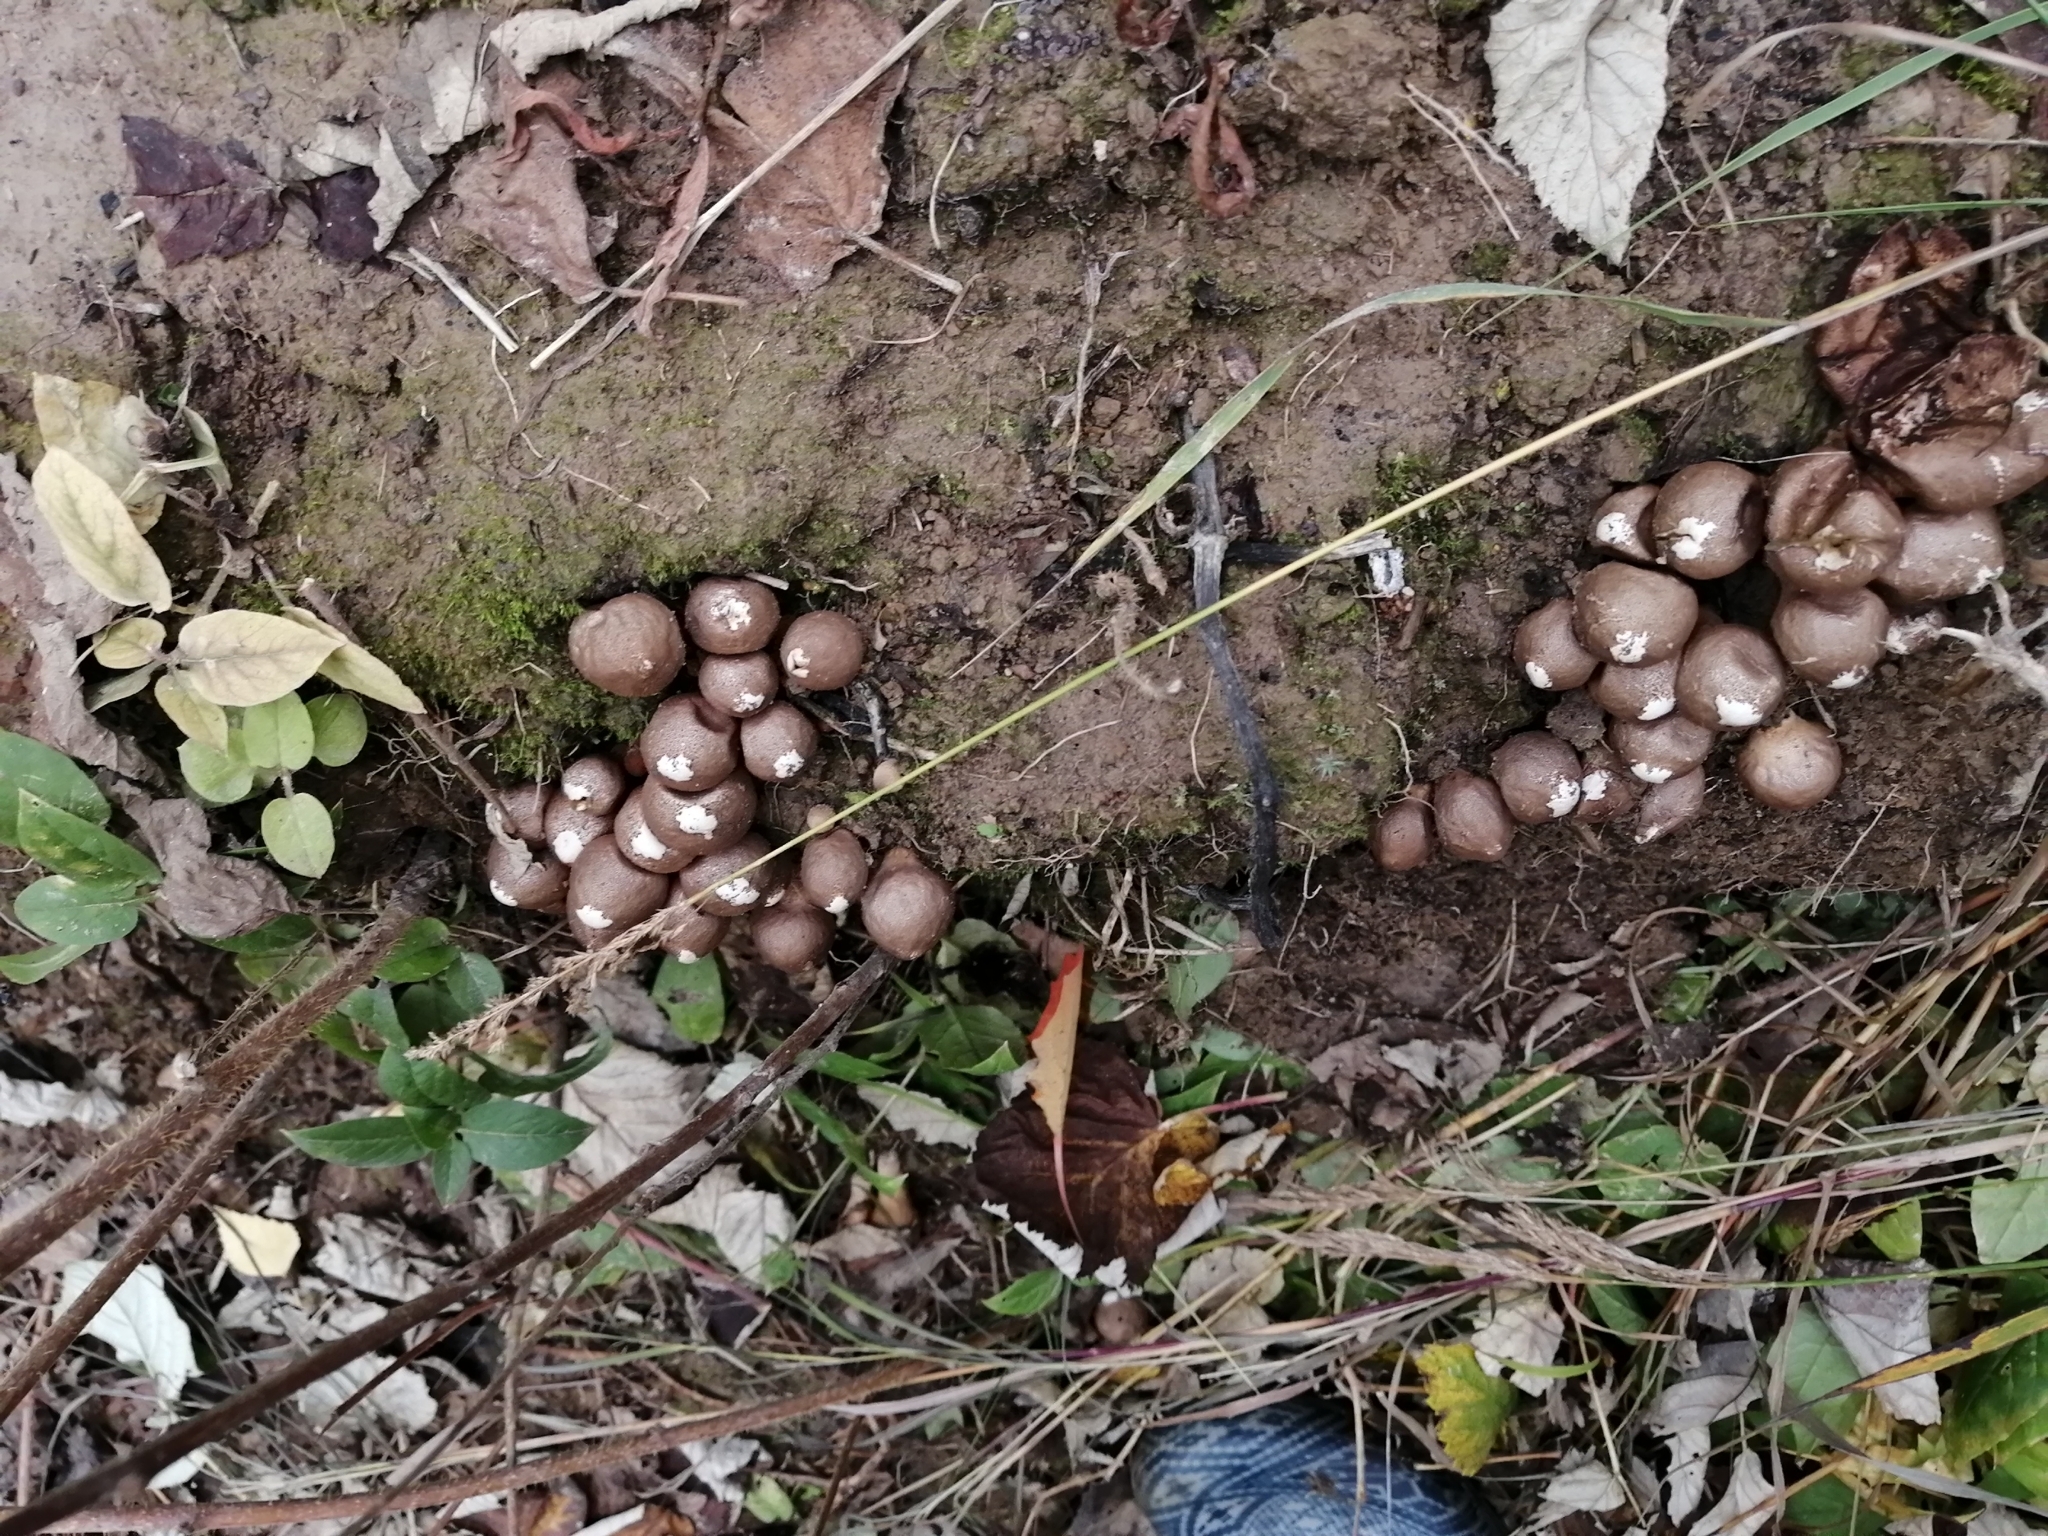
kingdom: Fungi
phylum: Basidiomycota
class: Agaricomycetes
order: Agaricales
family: Lycoperdaceae
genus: Apioperdon
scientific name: Apioperdon pyriforme
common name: Pear-shaped puffball
